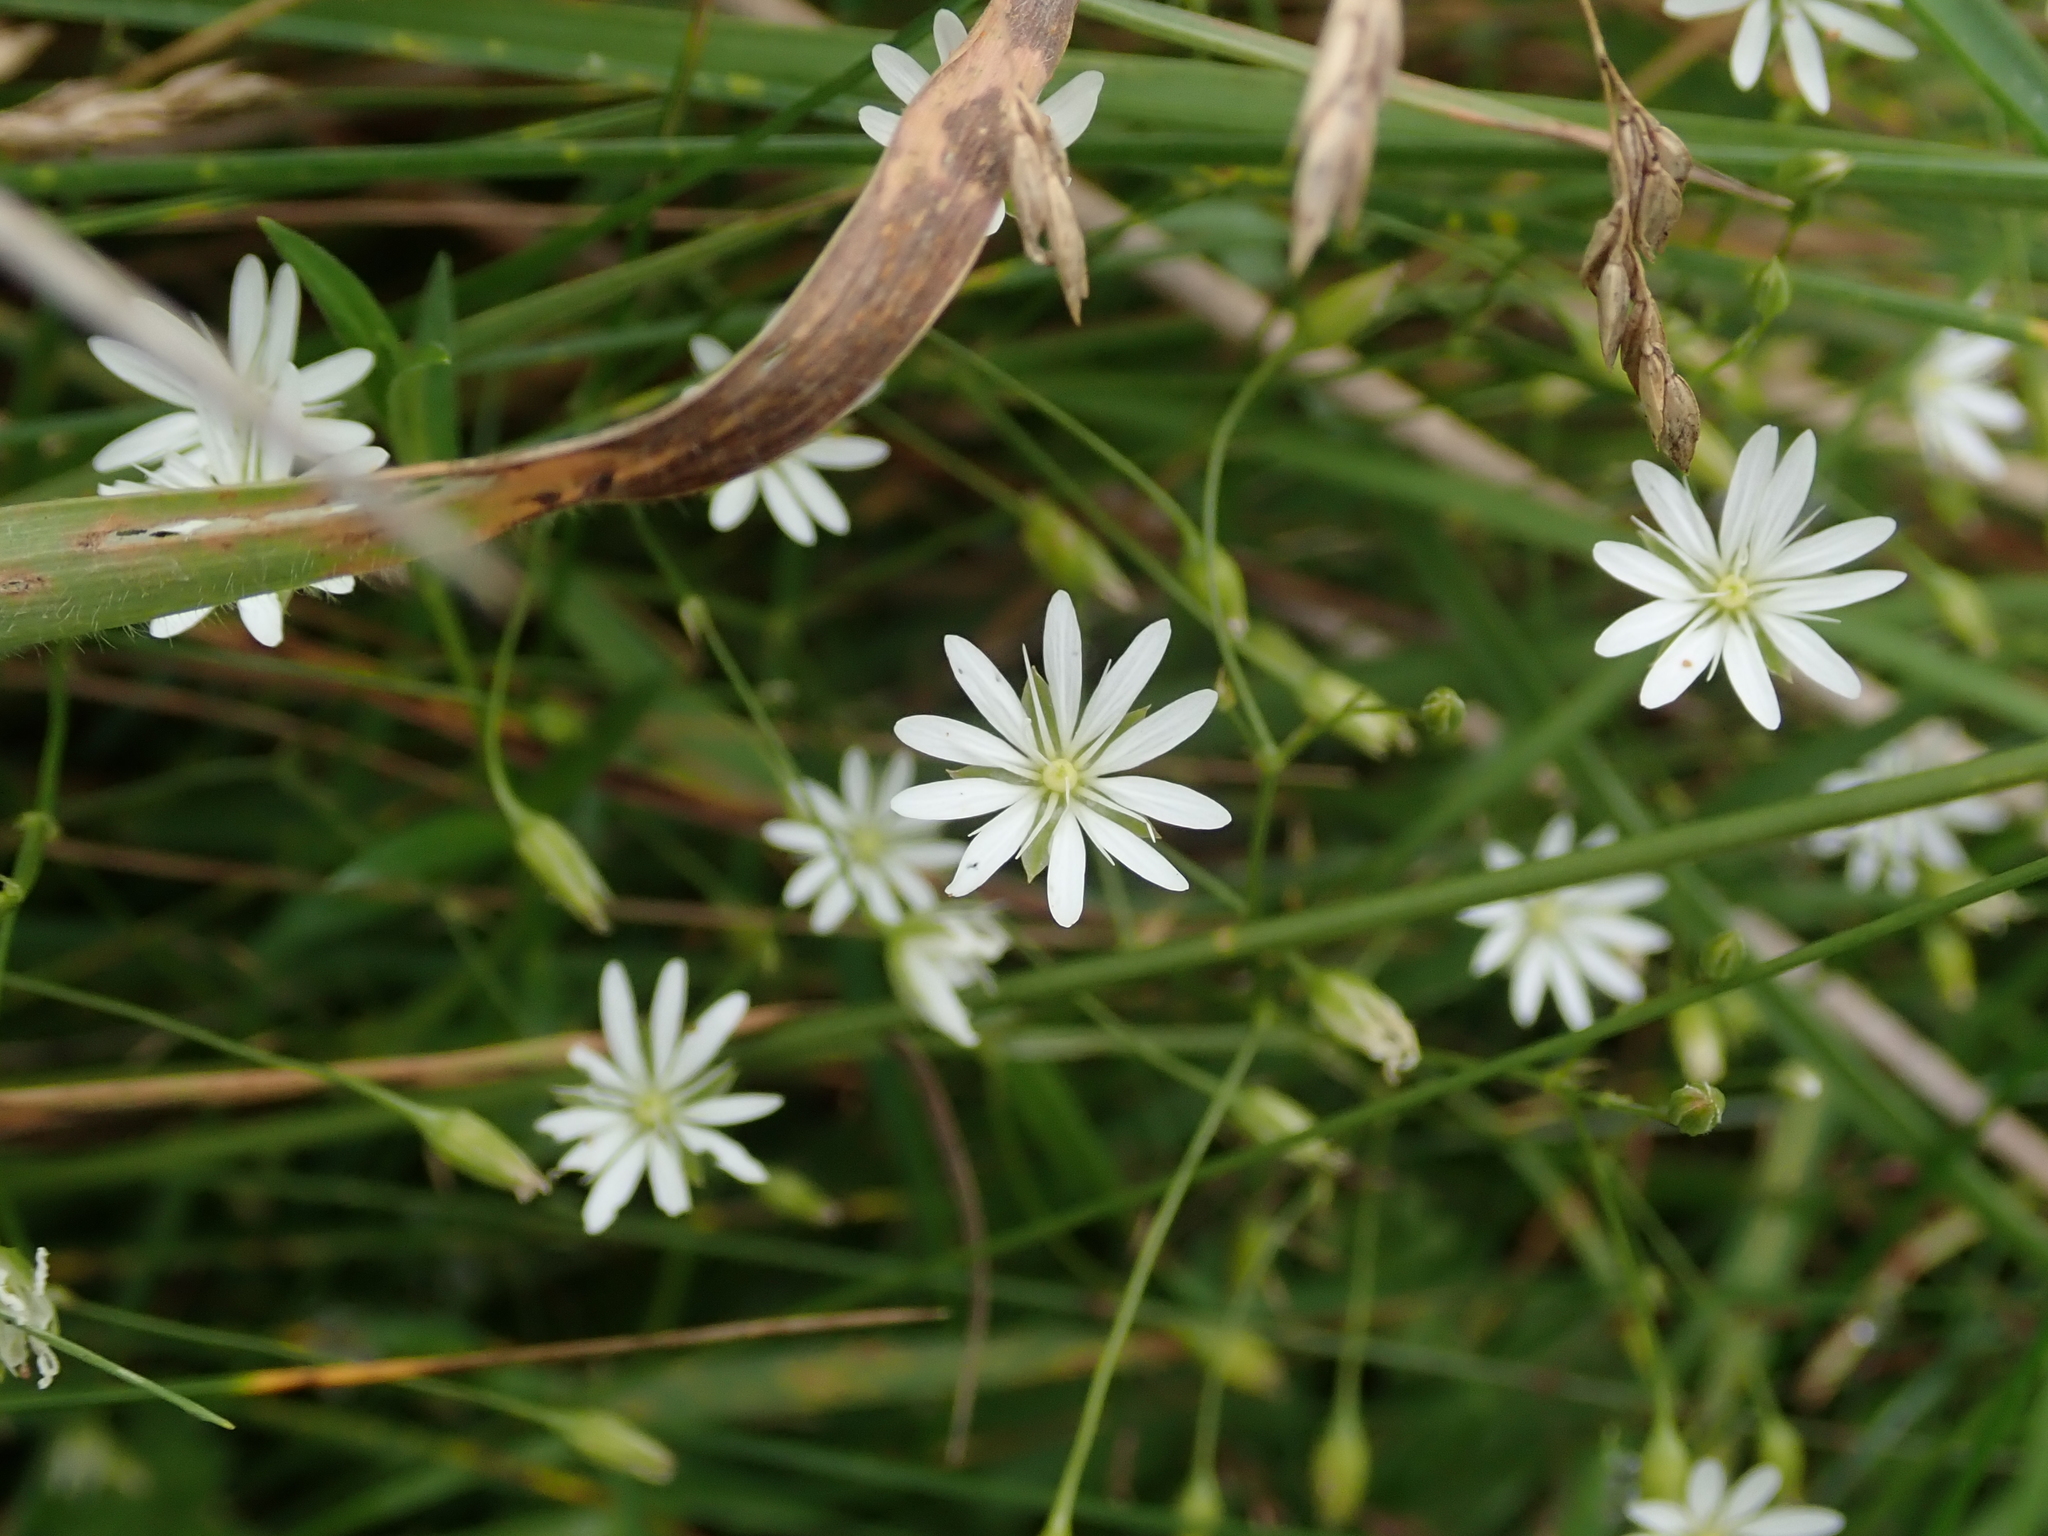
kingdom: Plantae
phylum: Tracheophyta
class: Magnoliopsida
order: Caryophyllales
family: Caryophyllaceae
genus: Stellaria
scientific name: Stellaria graminea
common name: Grass-like starwort
